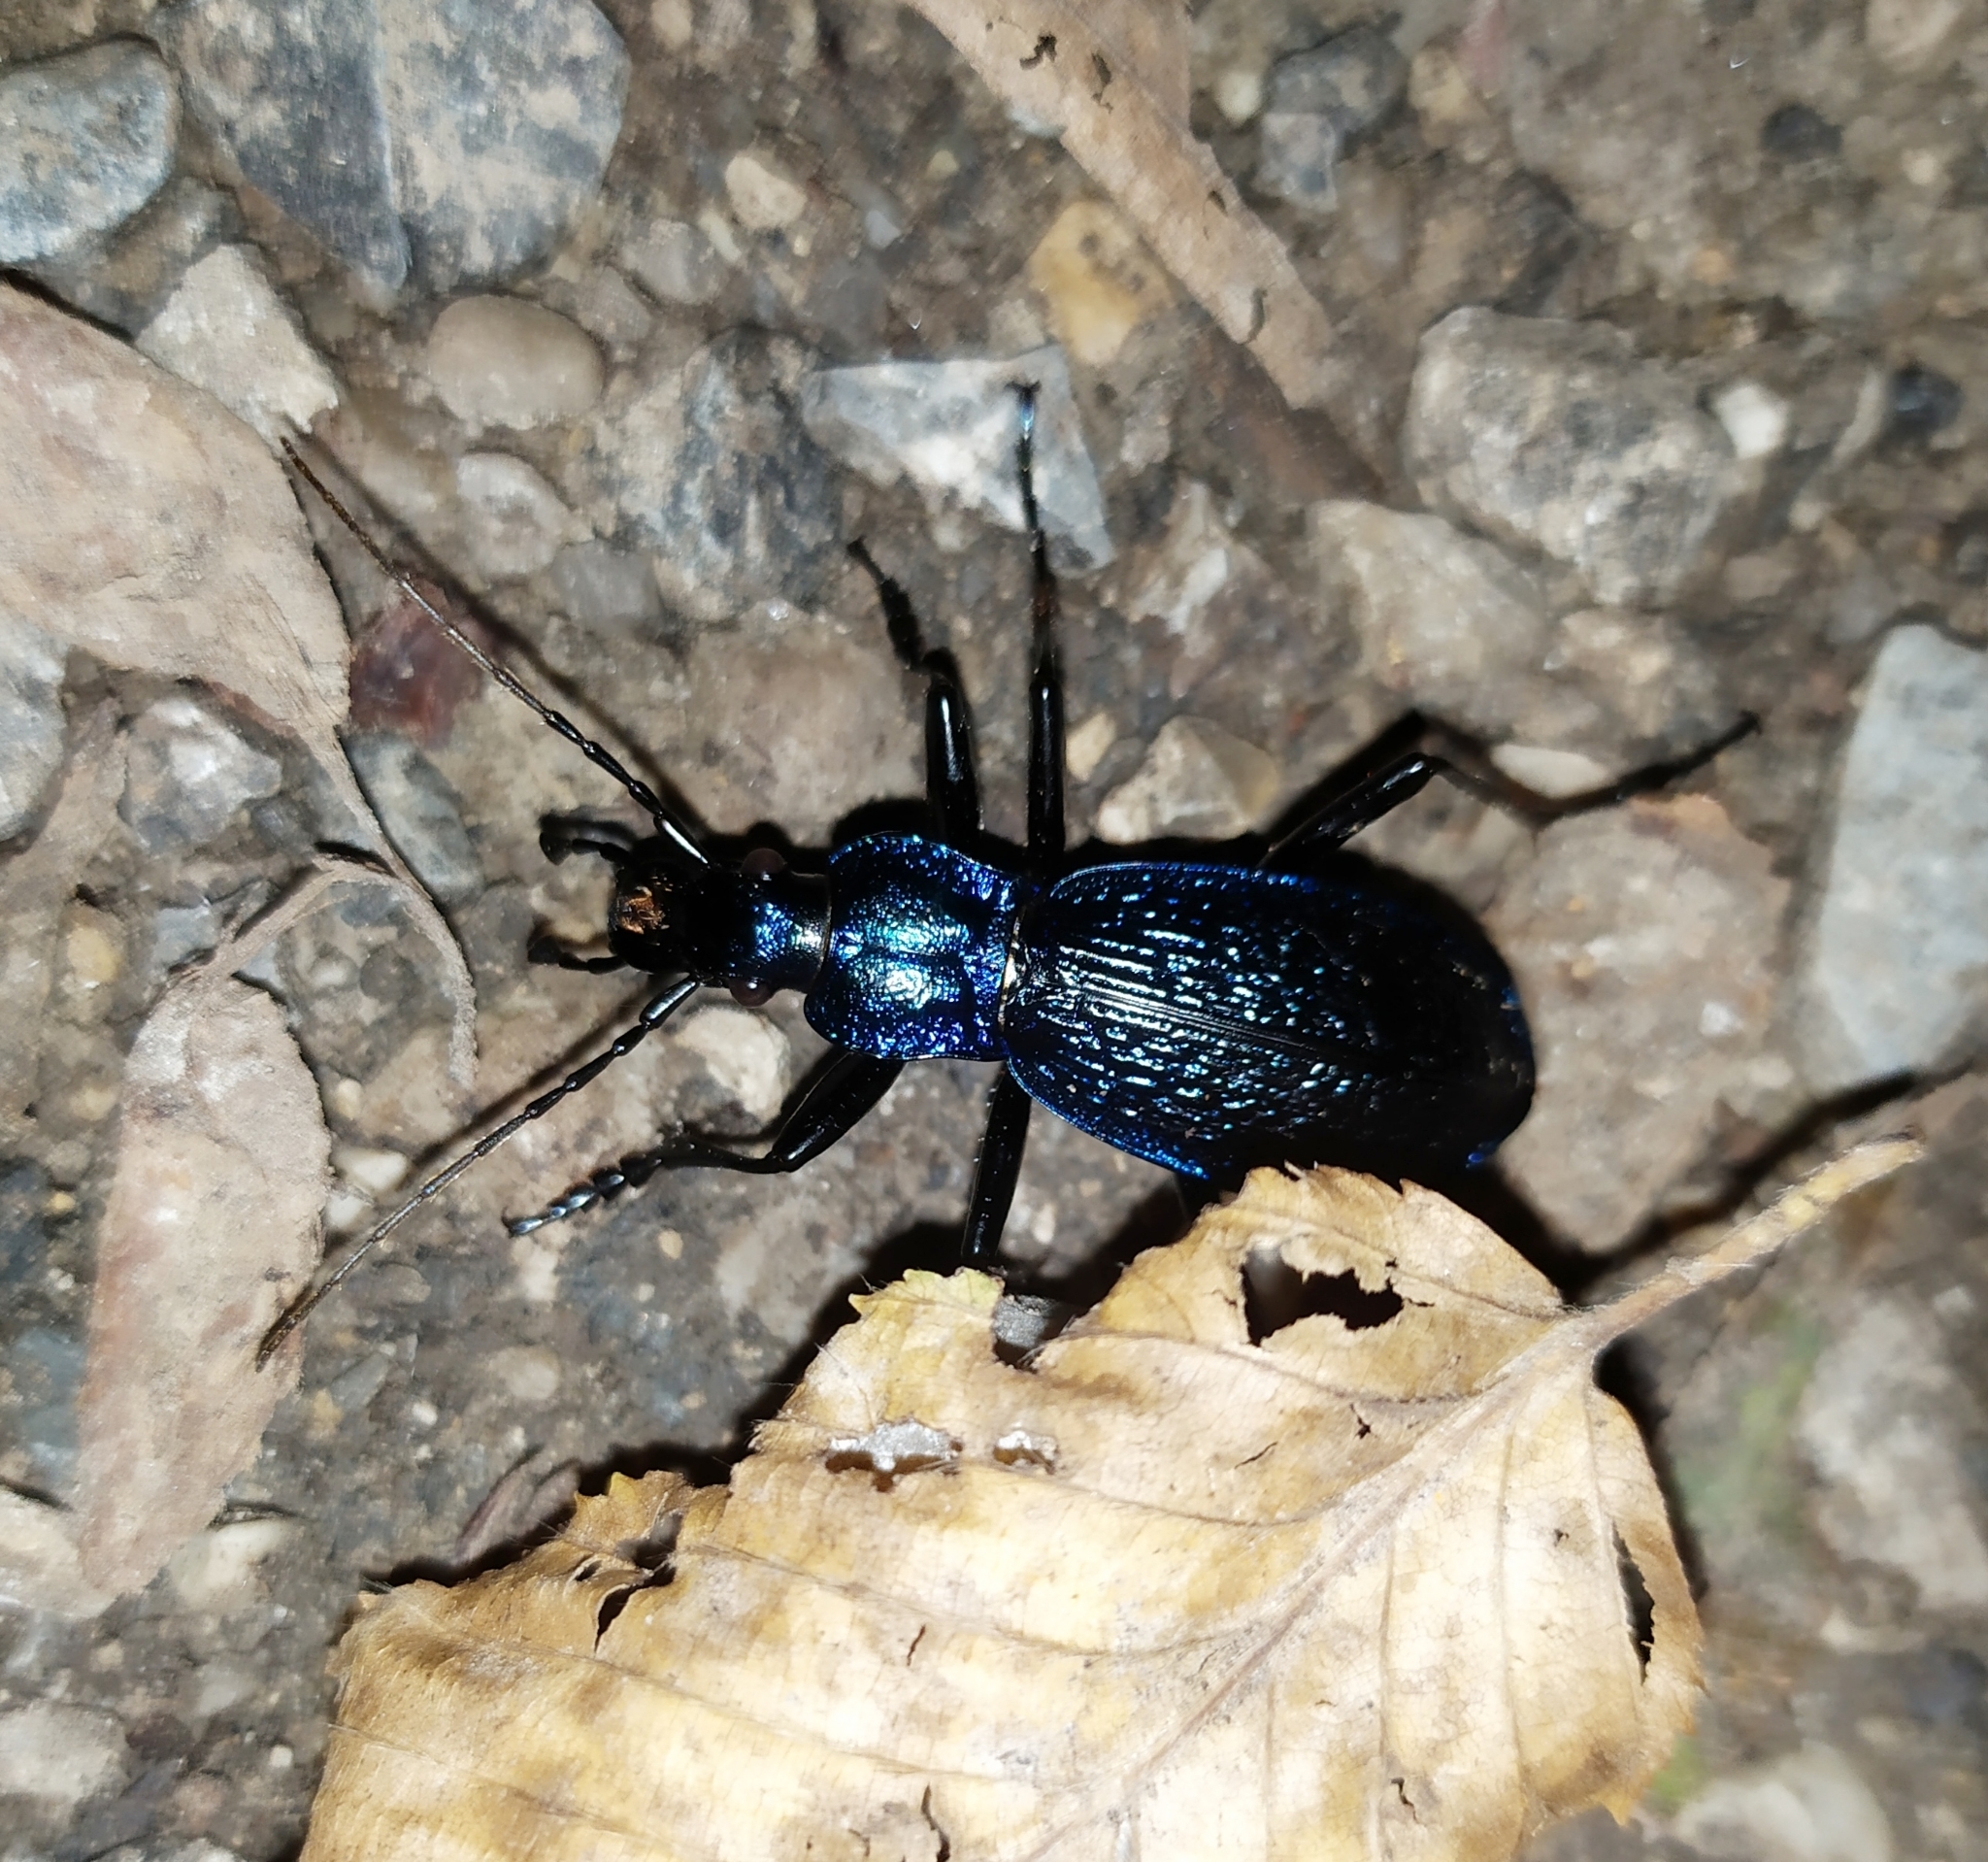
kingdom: Animalia
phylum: Arthropoda
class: Insecta
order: Coleoptera
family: Carabidae
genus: Carabus
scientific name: Carabus intricatus
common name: Blue ground beetle
